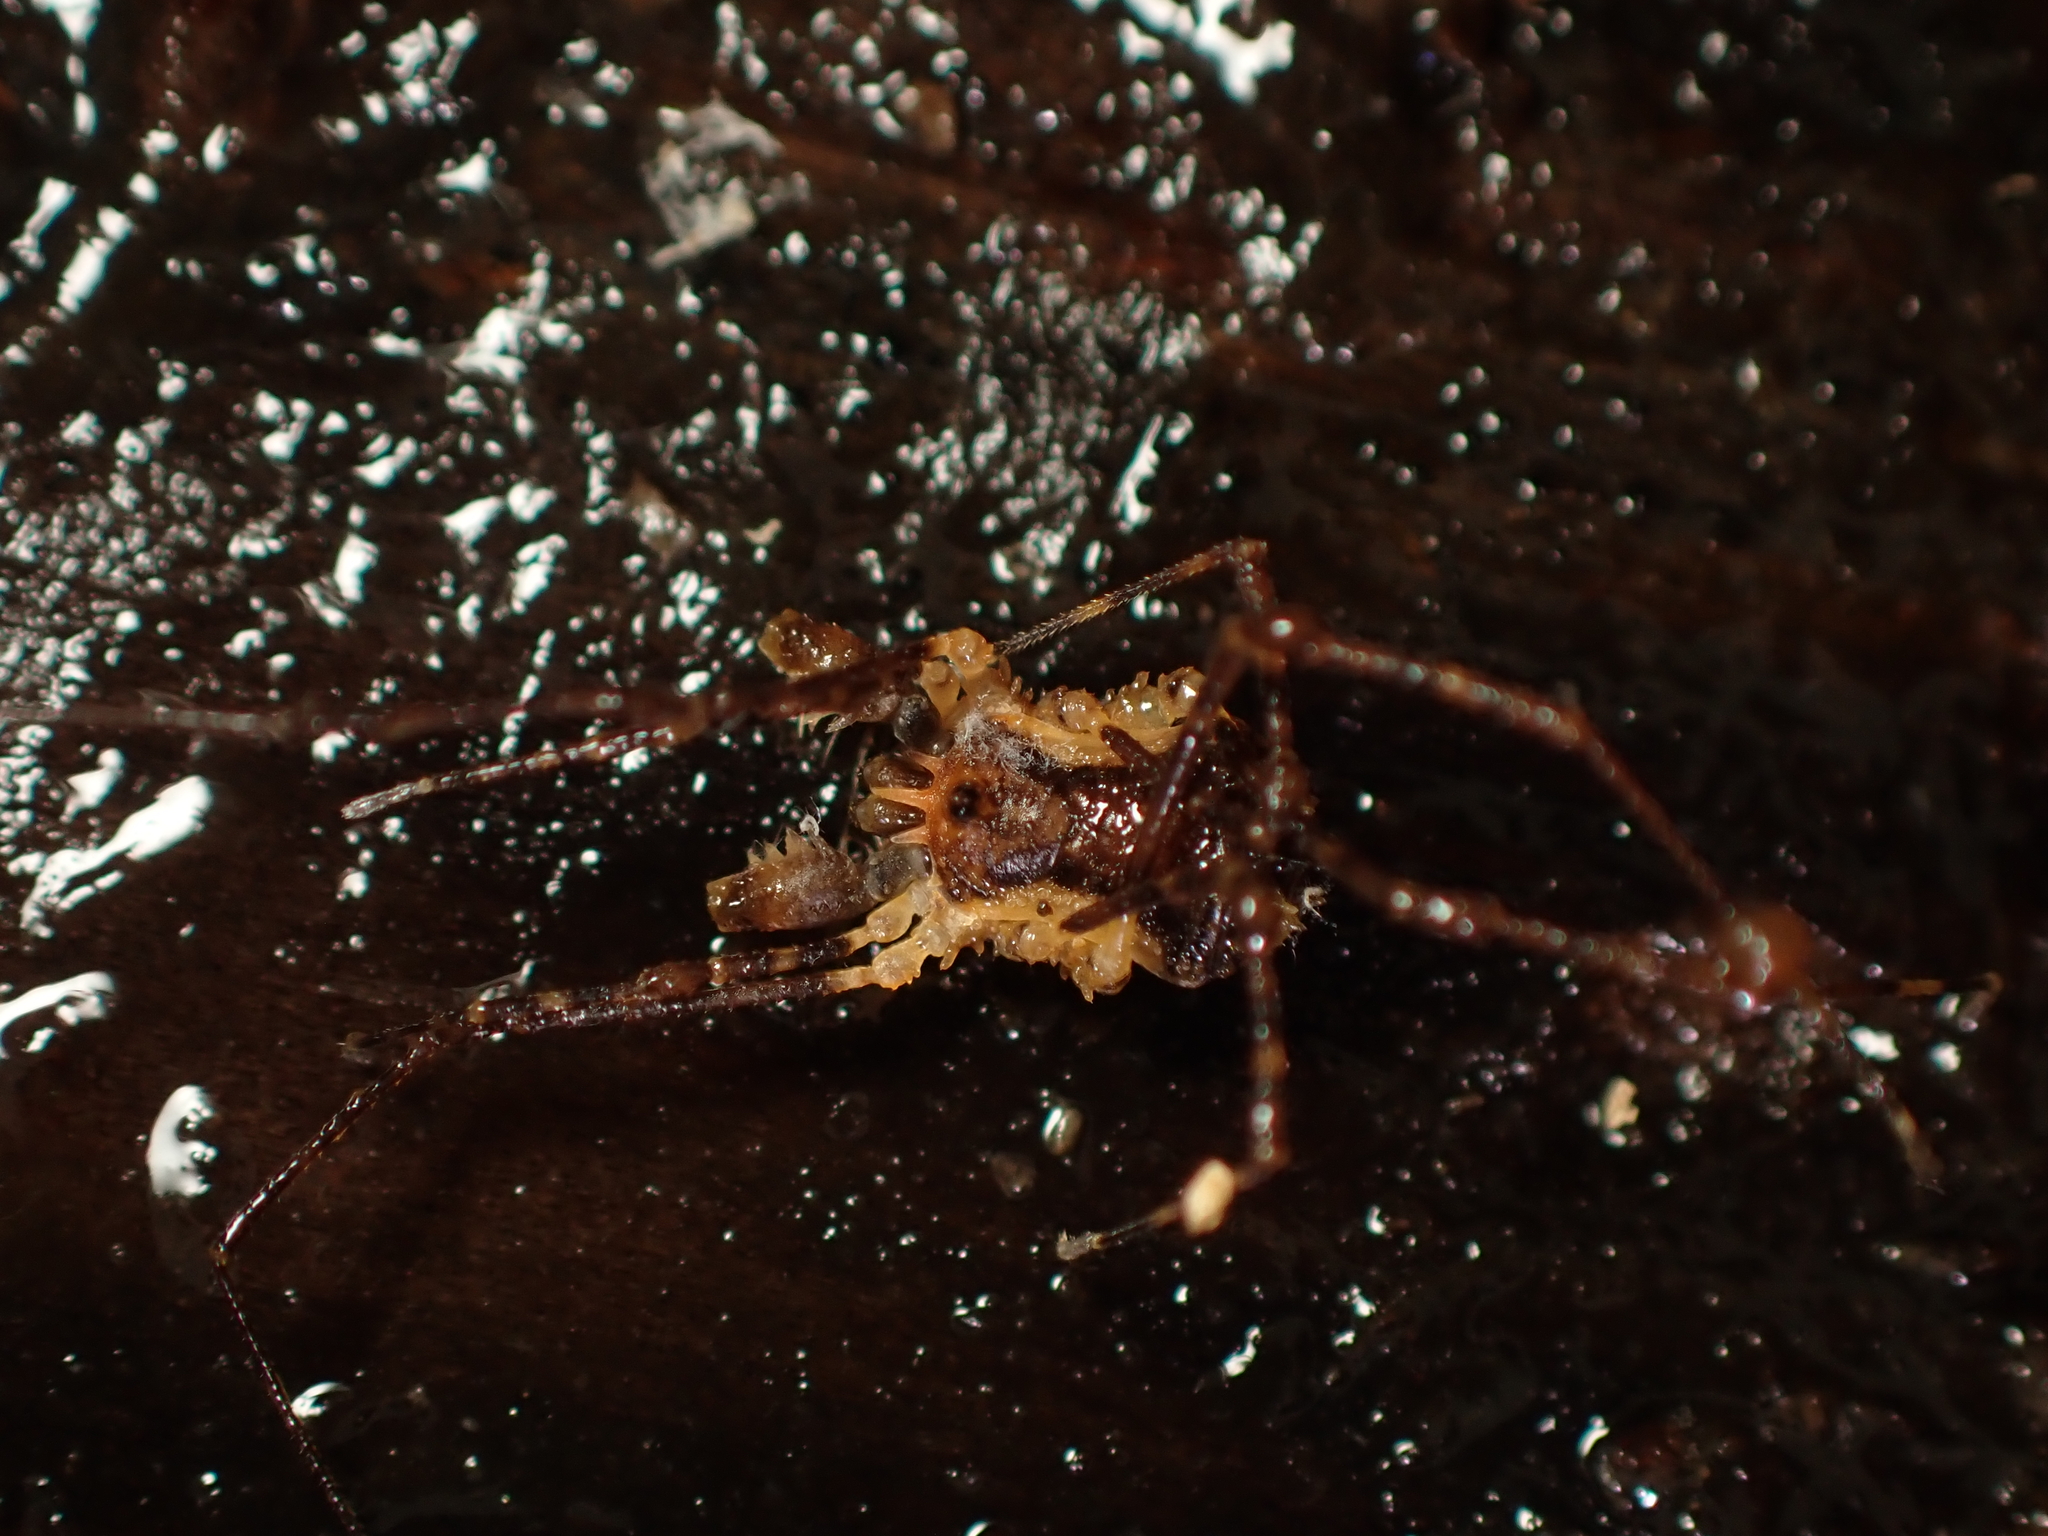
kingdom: Animalia
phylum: Arthropoda
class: Arachnida
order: Opiliones
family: Triaenonychidae
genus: Algidia
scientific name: Algidia interrupta
